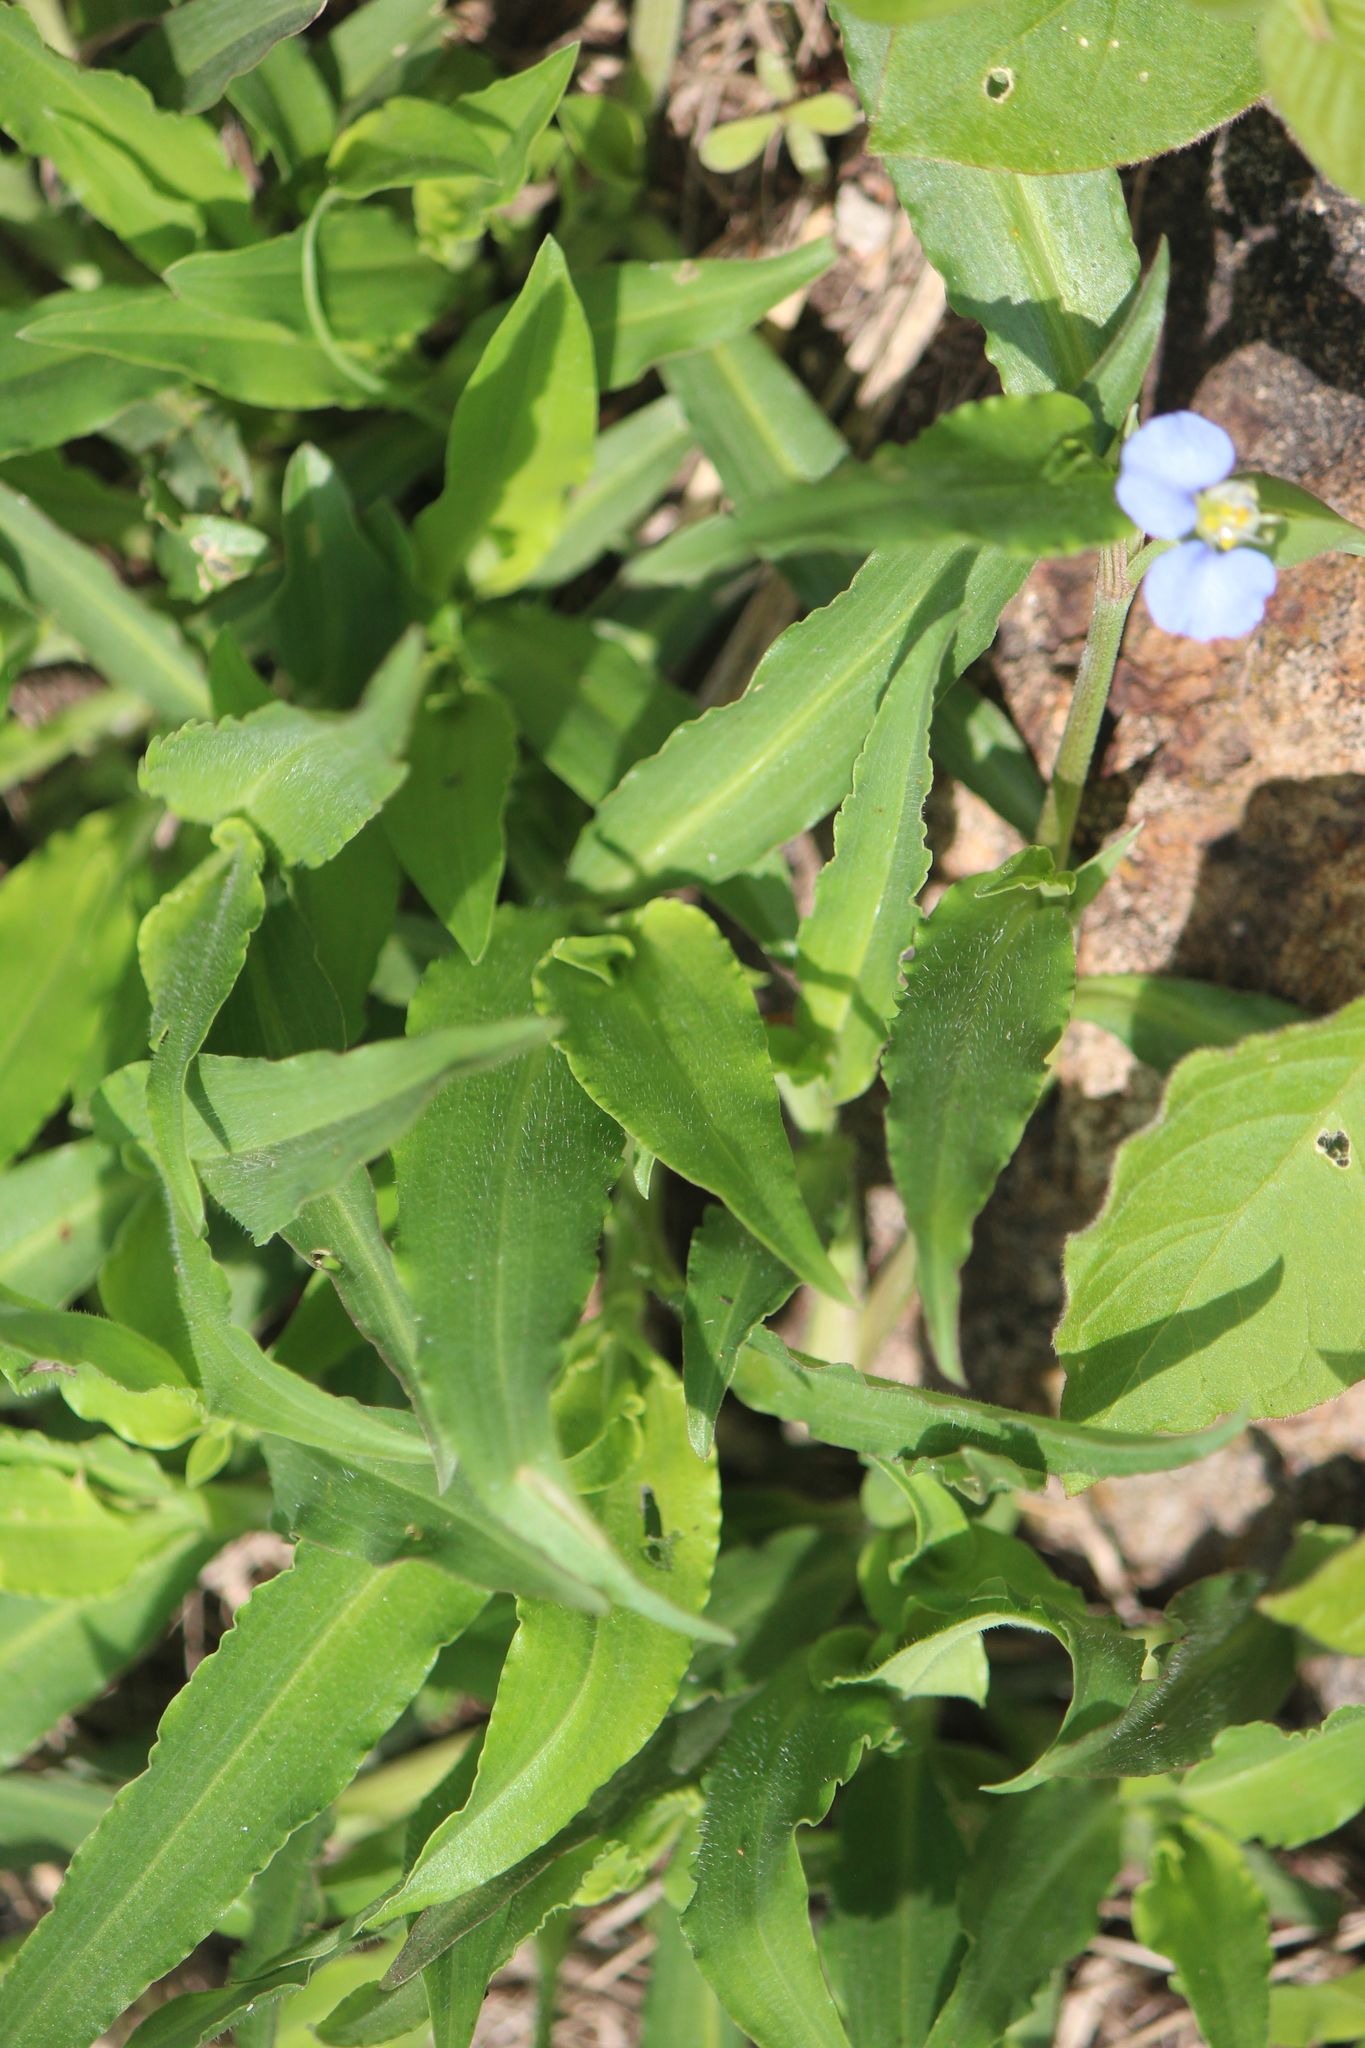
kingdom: Plantae
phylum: Tracheophyta
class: Liliopsida
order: Commelinales
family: Commelinaceae
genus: Commelina
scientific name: Commelina erecta
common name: Blousel blommetjie
